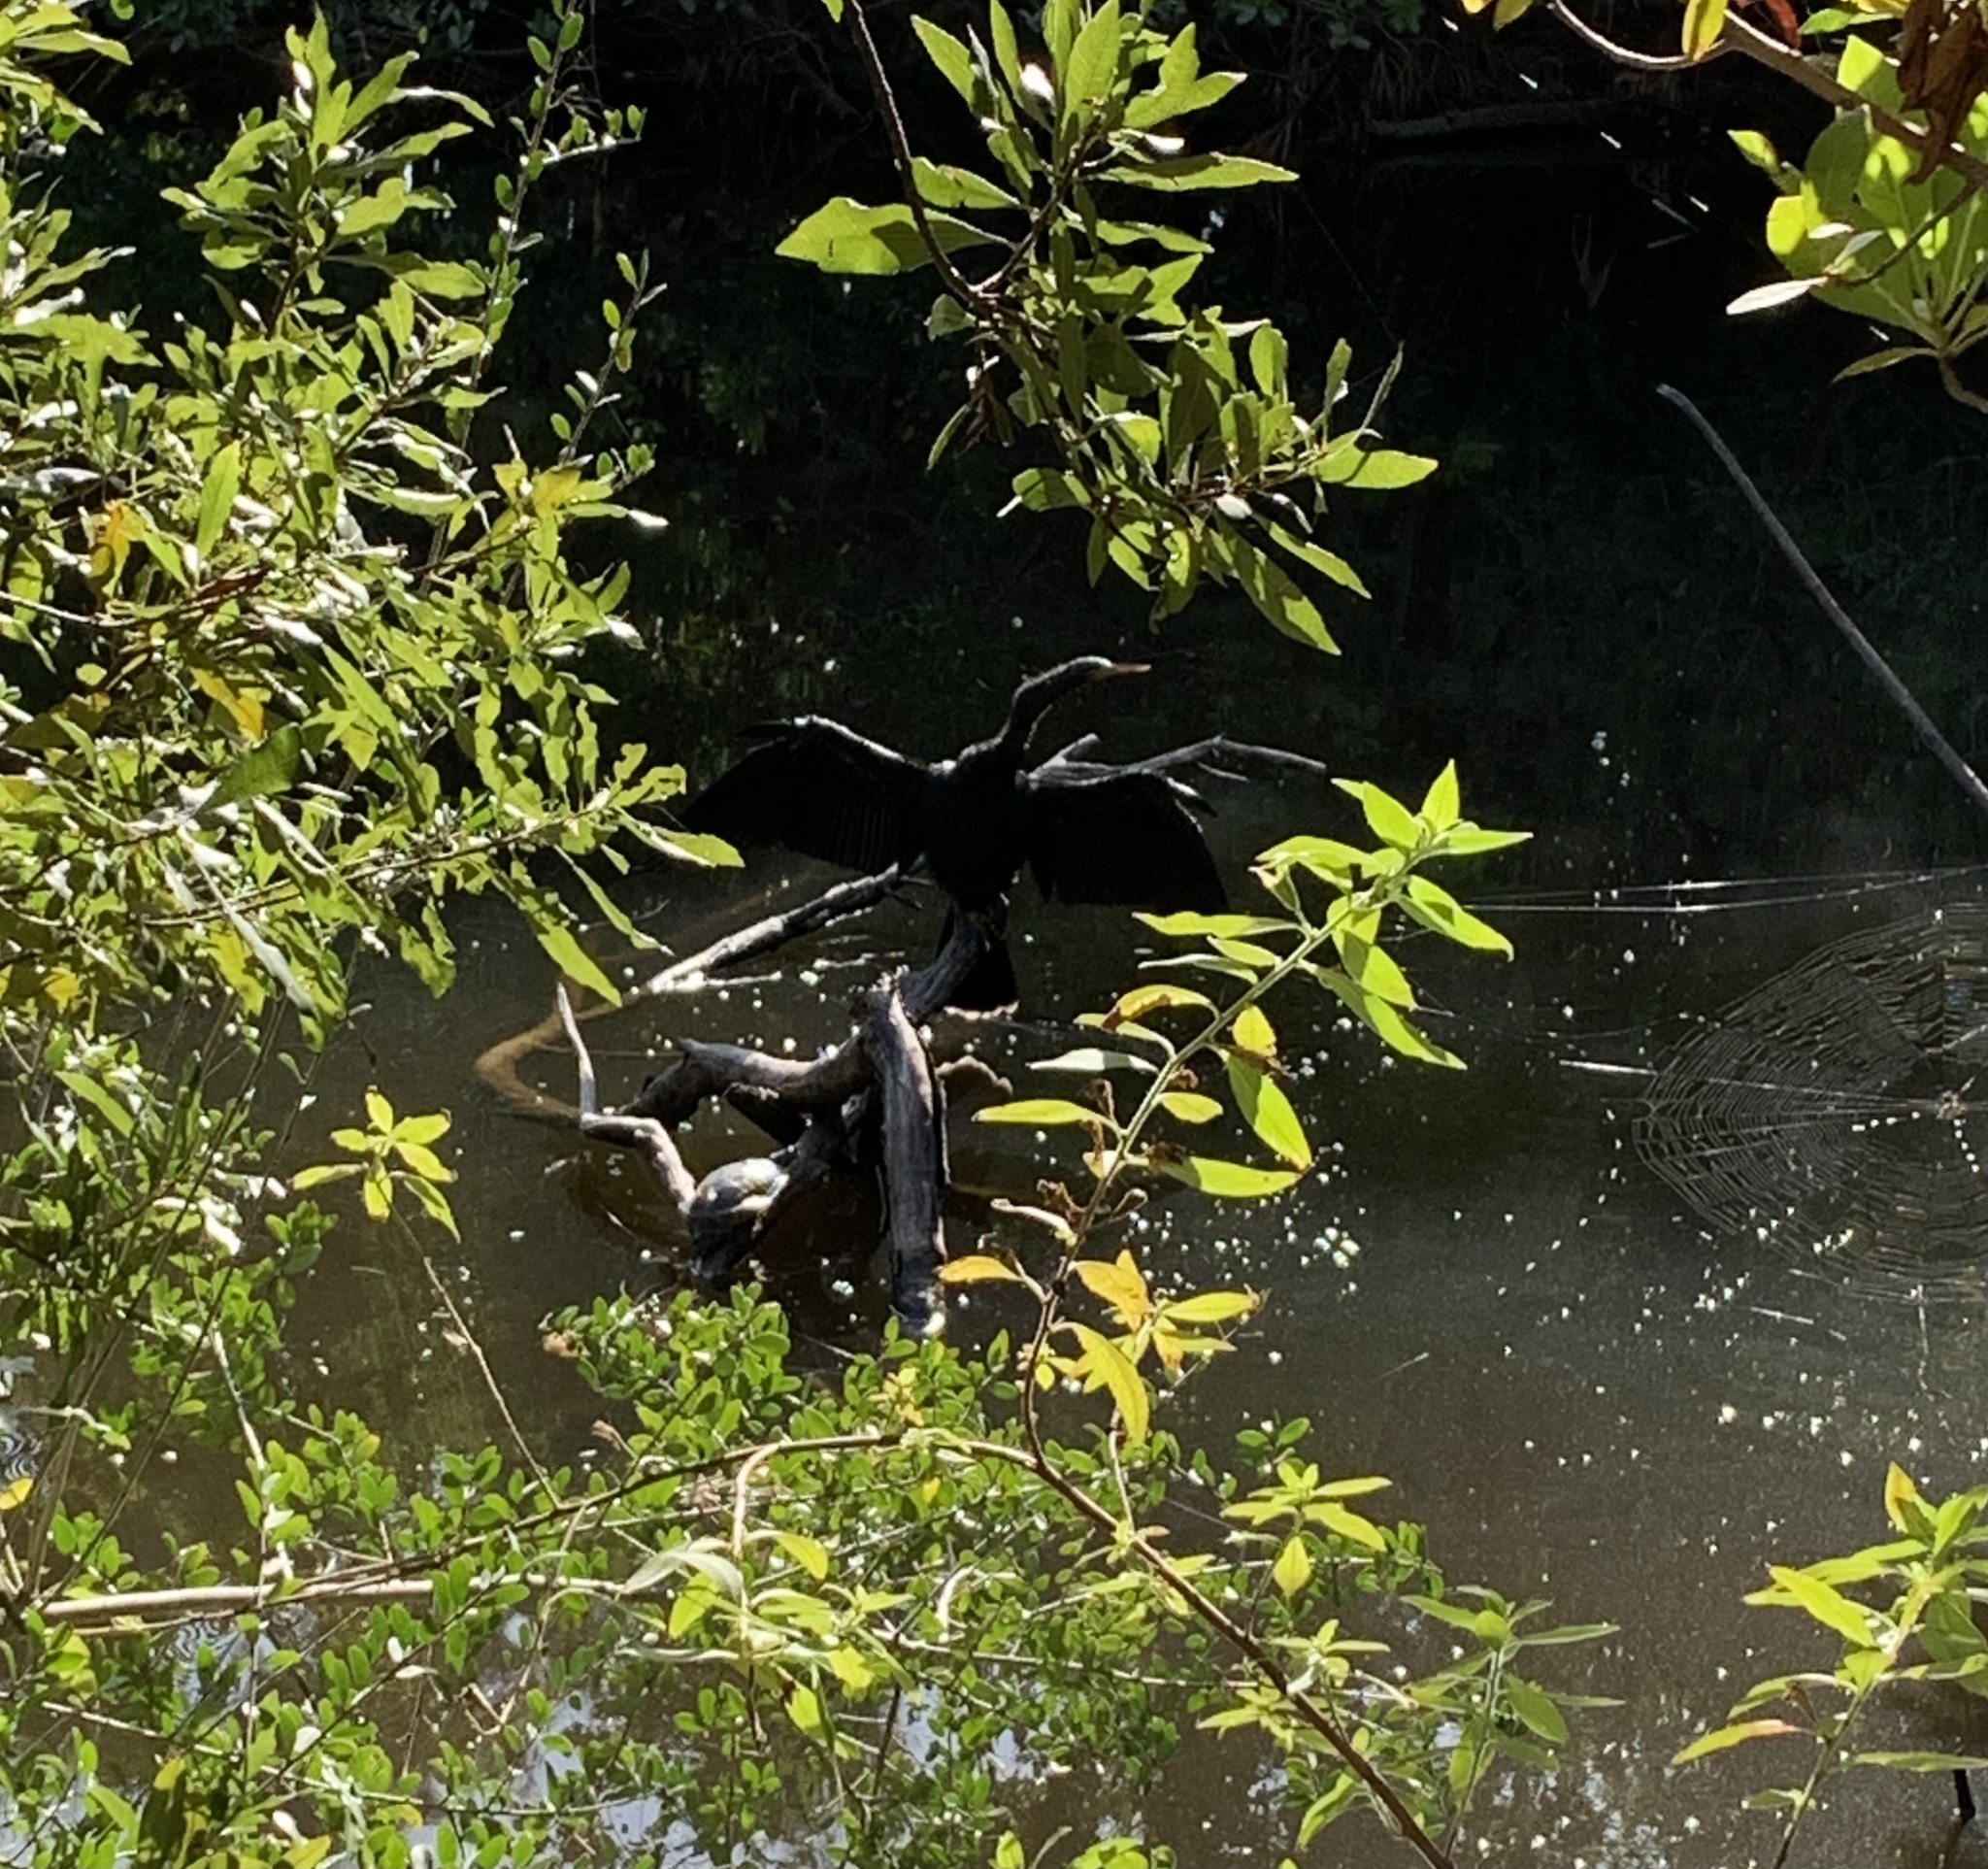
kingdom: Animalia
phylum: Chordata
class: Aves
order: Suliformes
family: Anhingidae
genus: Anhinga
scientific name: Anhinga anhinga
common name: Anhinga
